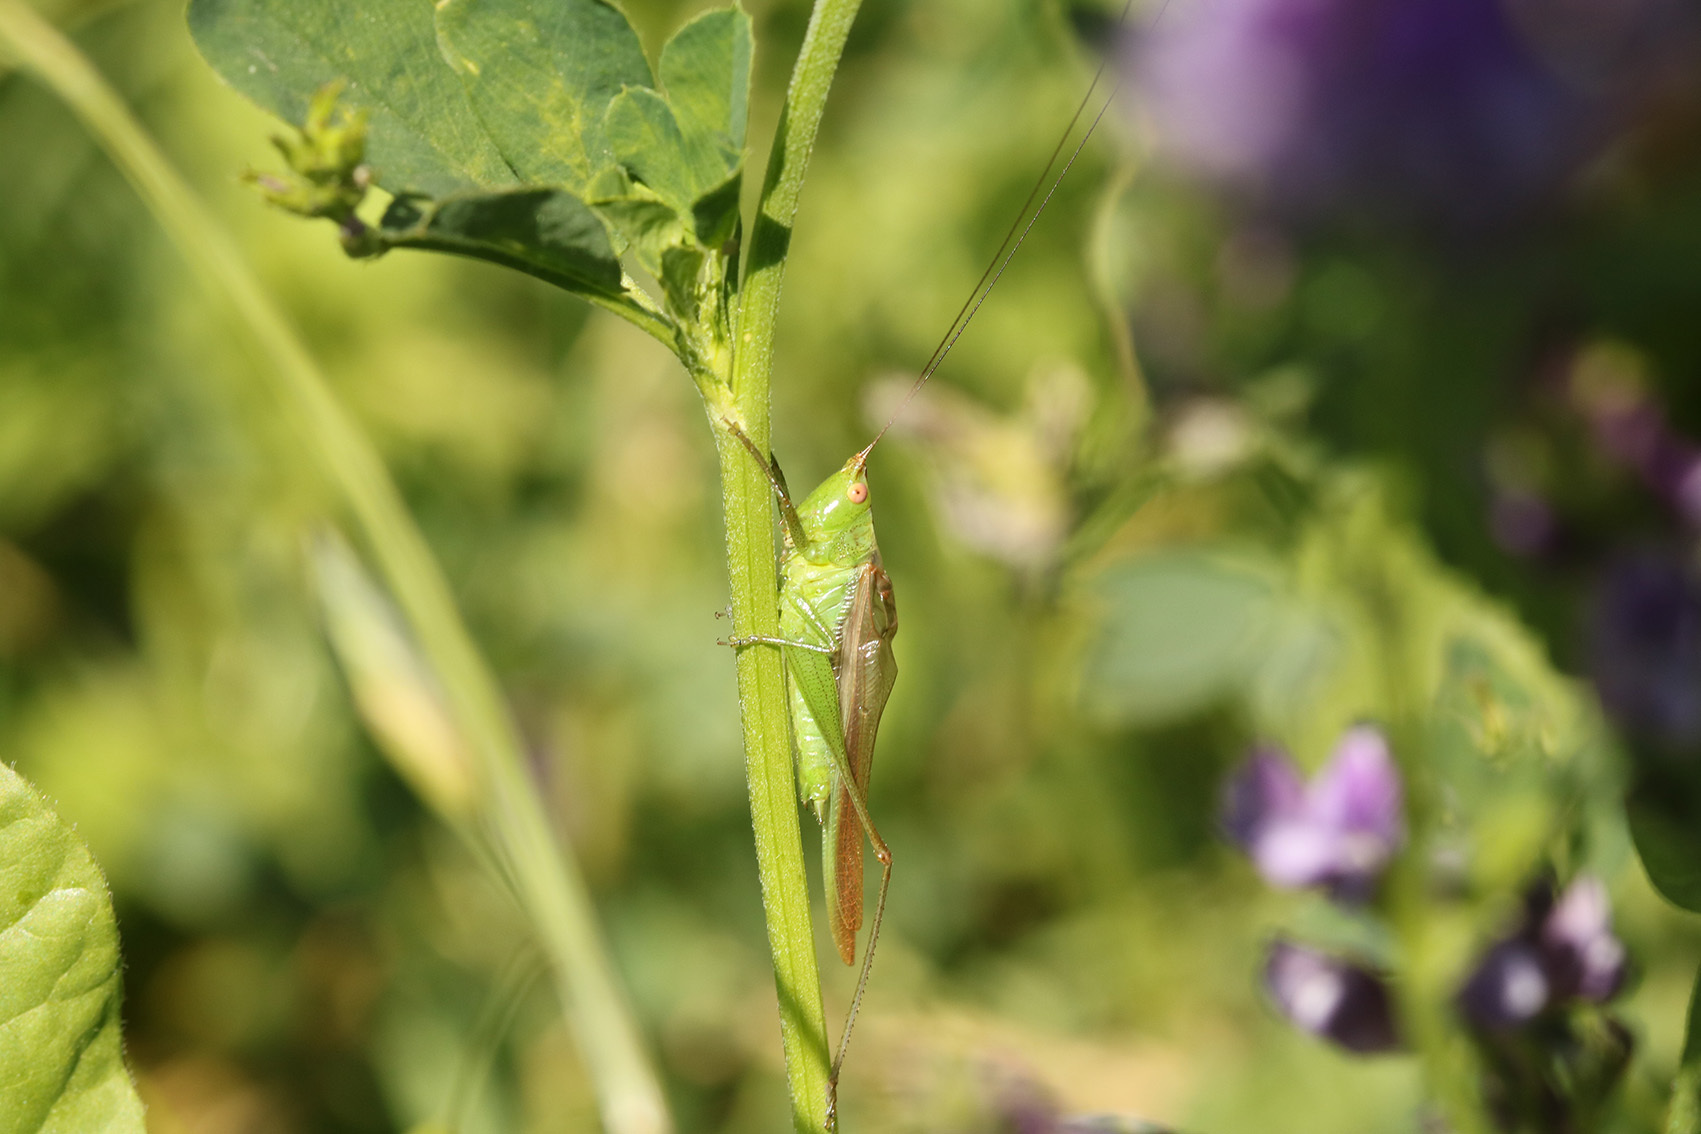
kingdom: Animalia
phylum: Arthropoda
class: Insecta
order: Orthoptera
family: Tettigoniidae
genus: Conocephalus
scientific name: Conocephalus longipes
